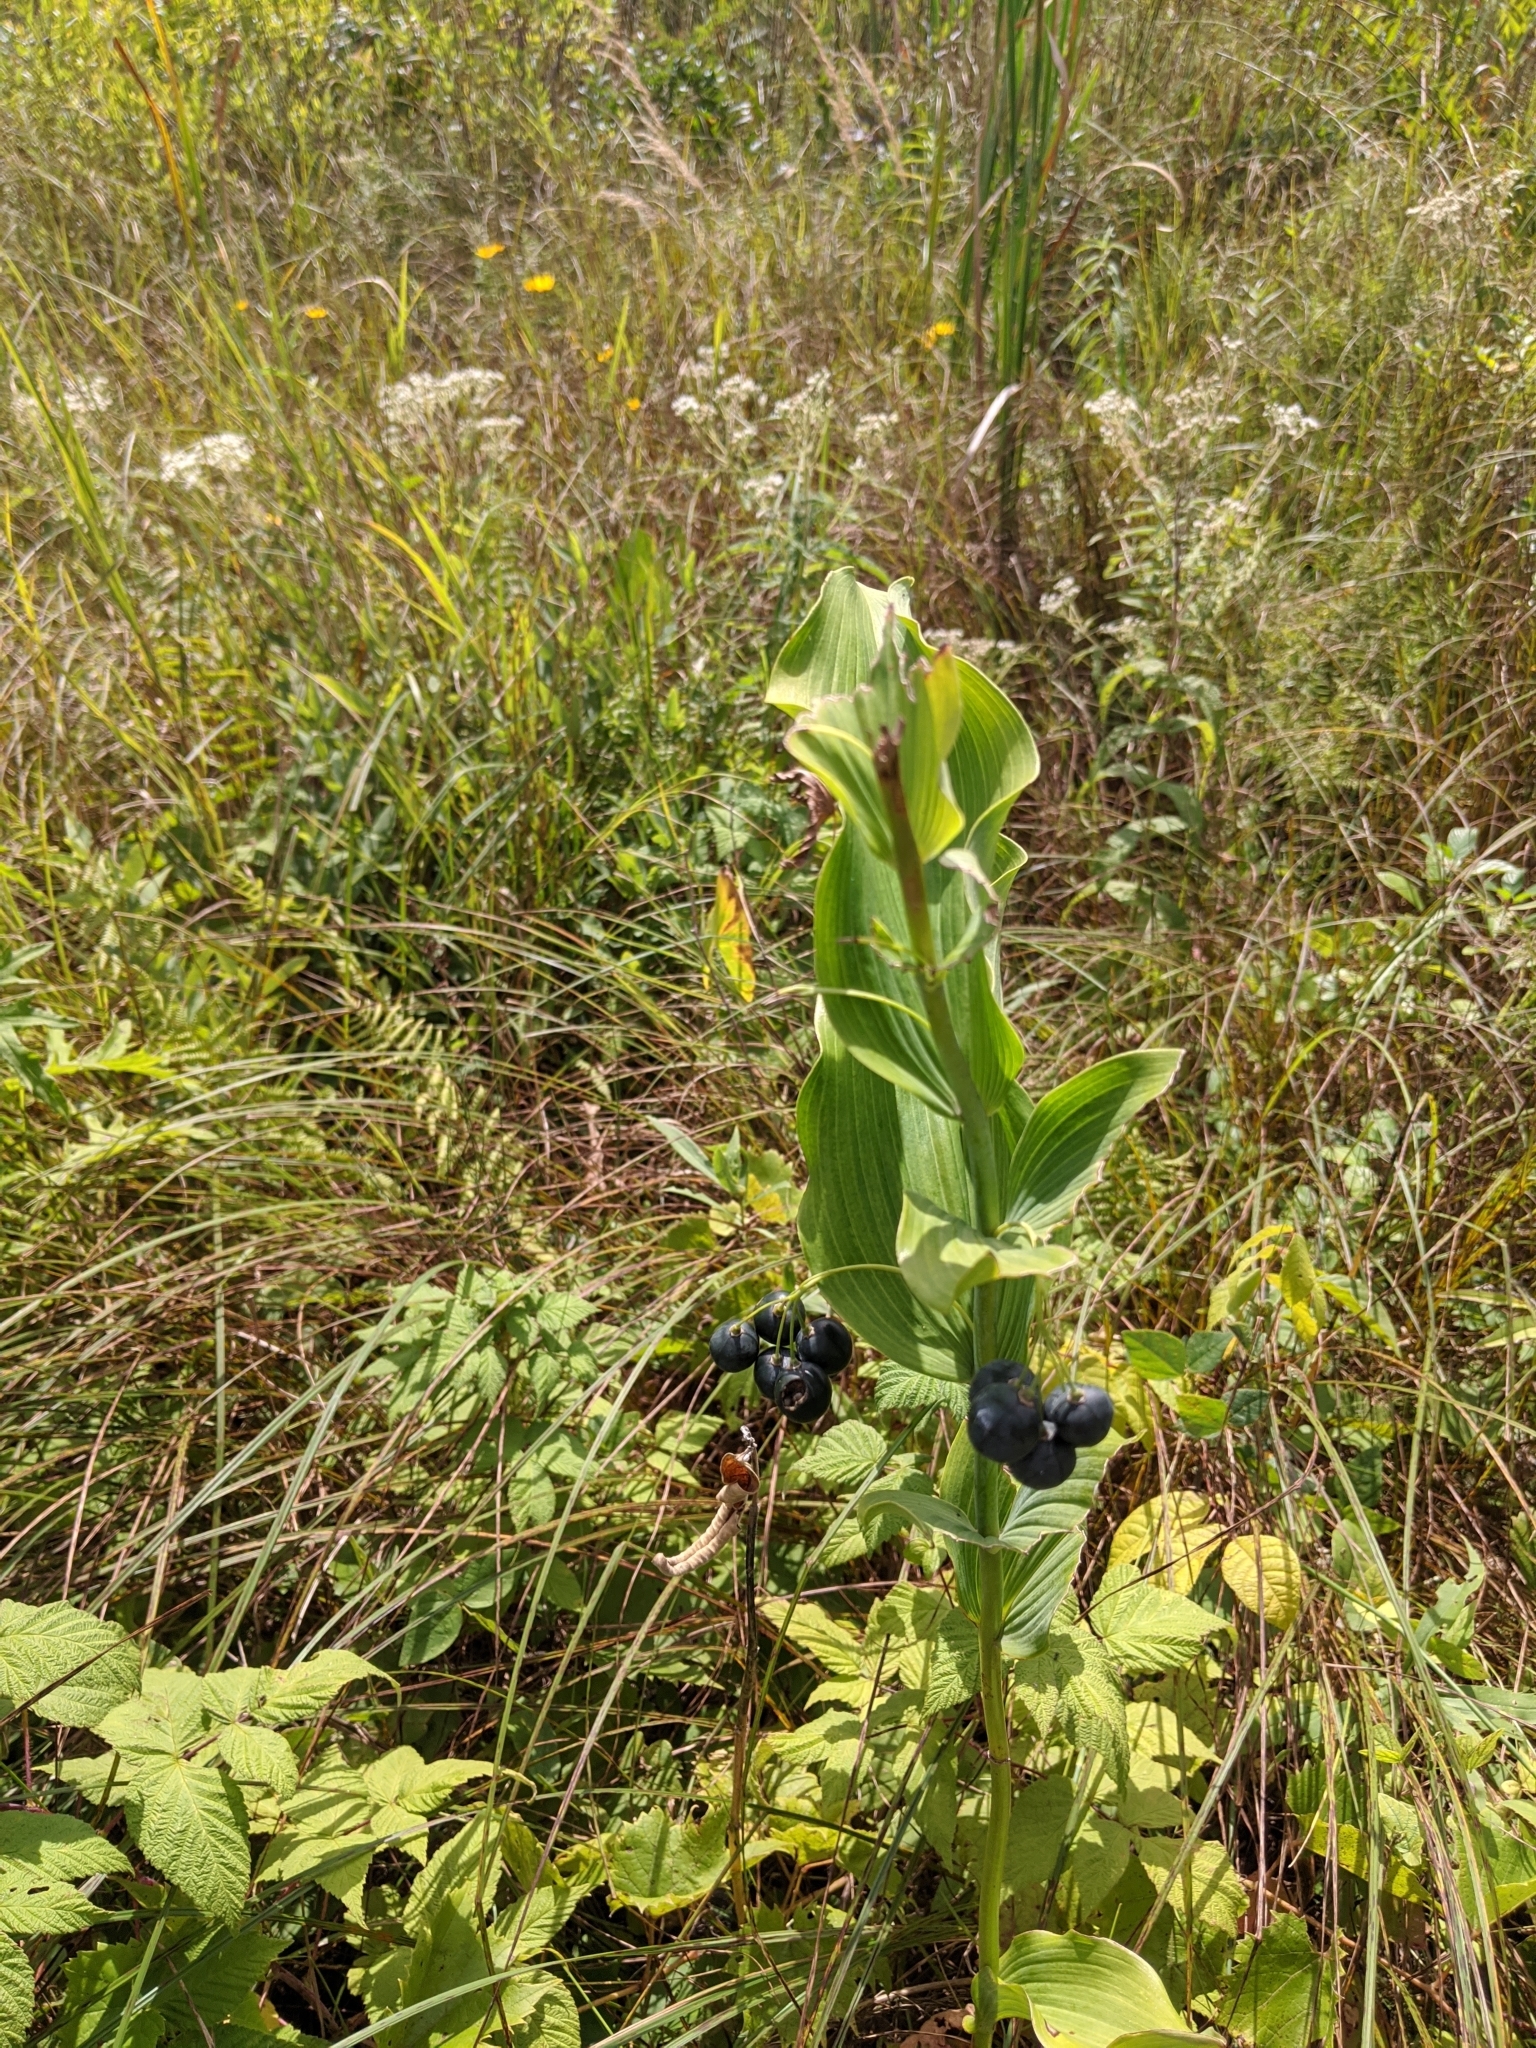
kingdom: Plantae
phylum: Tracheophyta
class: Liliopsida
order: Asparagales
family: Asparagaceae
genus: Polygonatum
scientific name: Polygonatum biflorum
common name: American solomon's-seal
